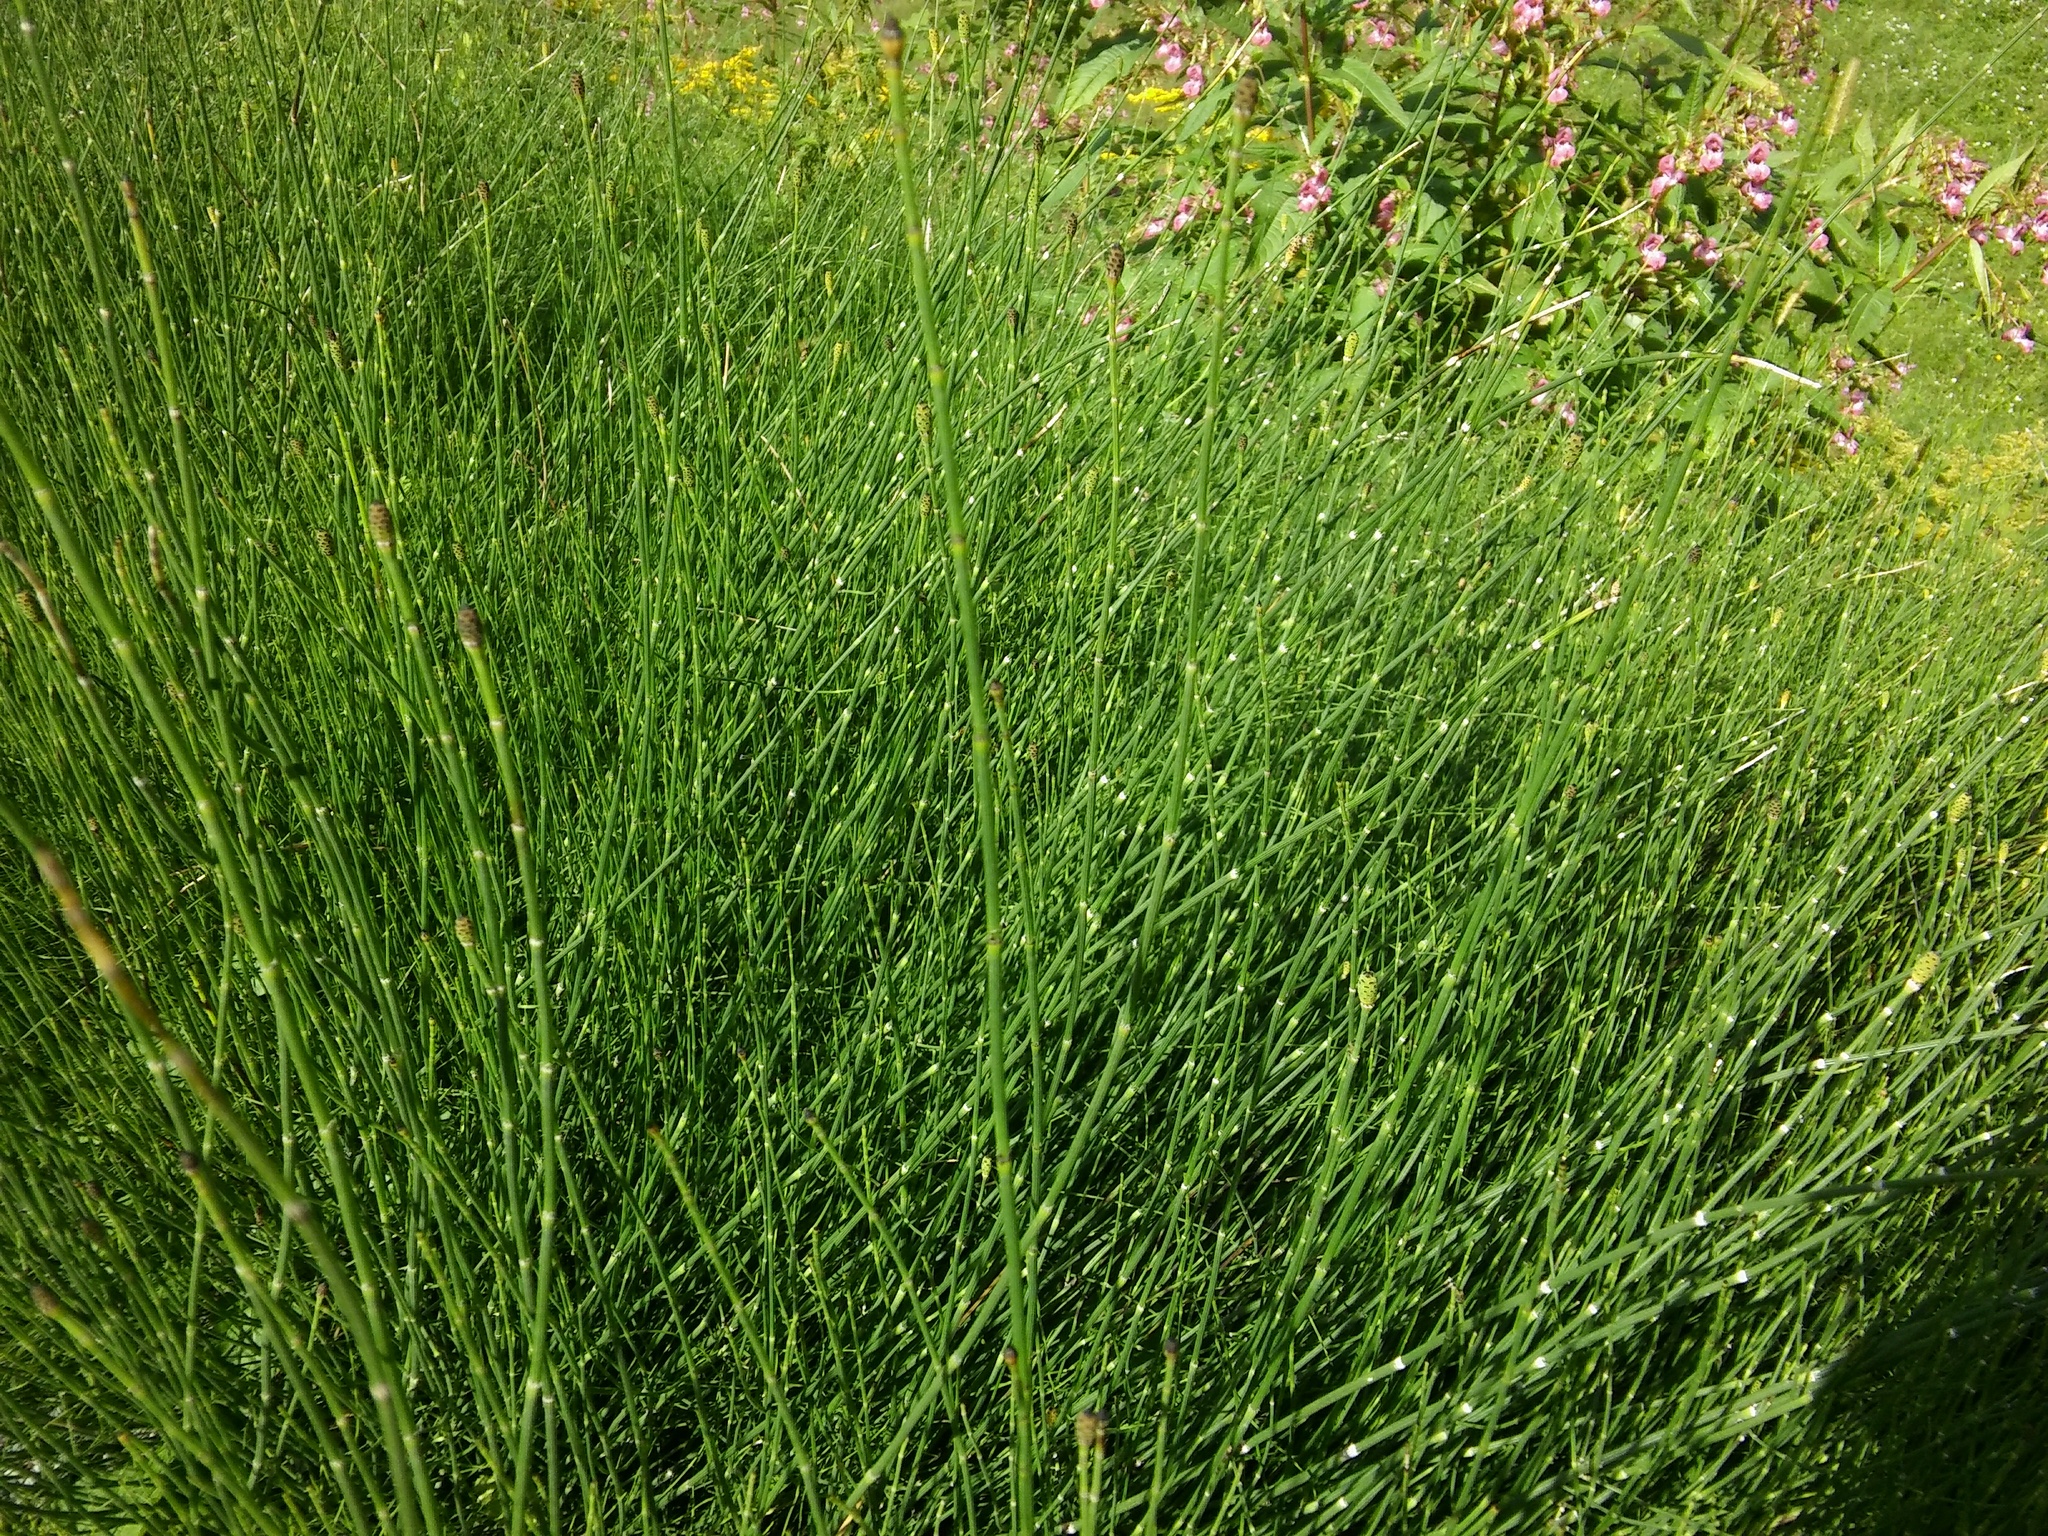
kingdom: Plantae
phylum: Tracheophyta
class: Polypodiopsida
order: Equisetales
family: Equisetaceae
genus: Equisetum
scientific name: Equisetum moorei
